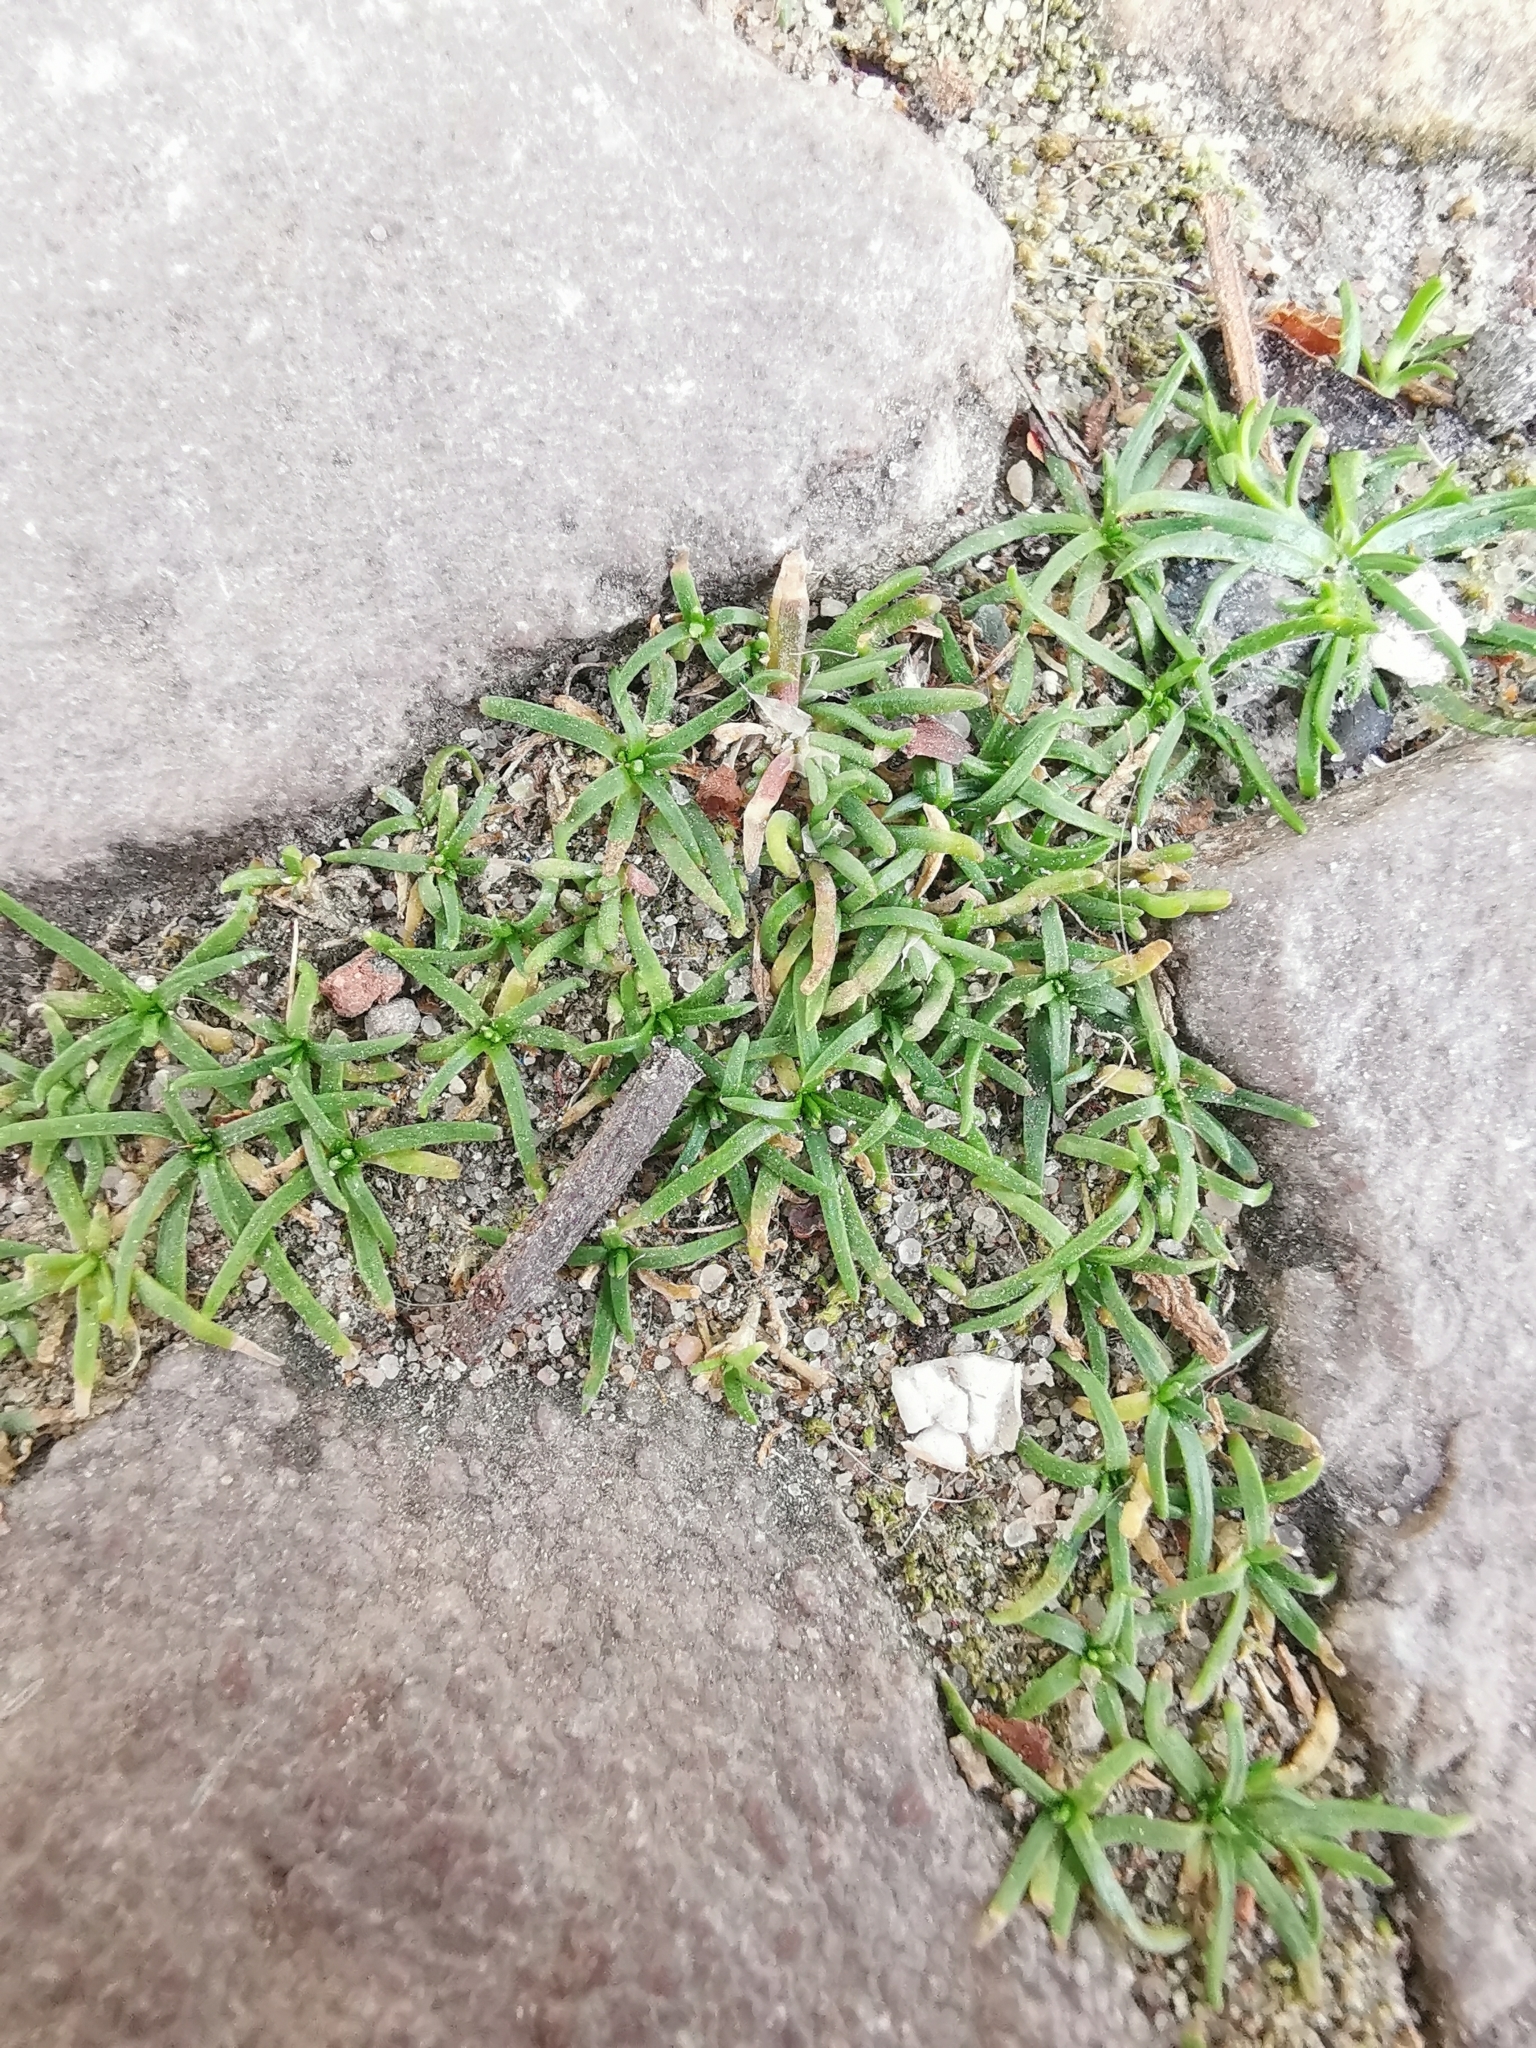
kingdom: Plantae
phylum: Tracheophyta
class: Magnoliopsida
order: Caryophyllales
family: Caryophyllaceae
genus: Sagina
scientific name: Sagina procumbens
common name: Procumbent pearlwort
